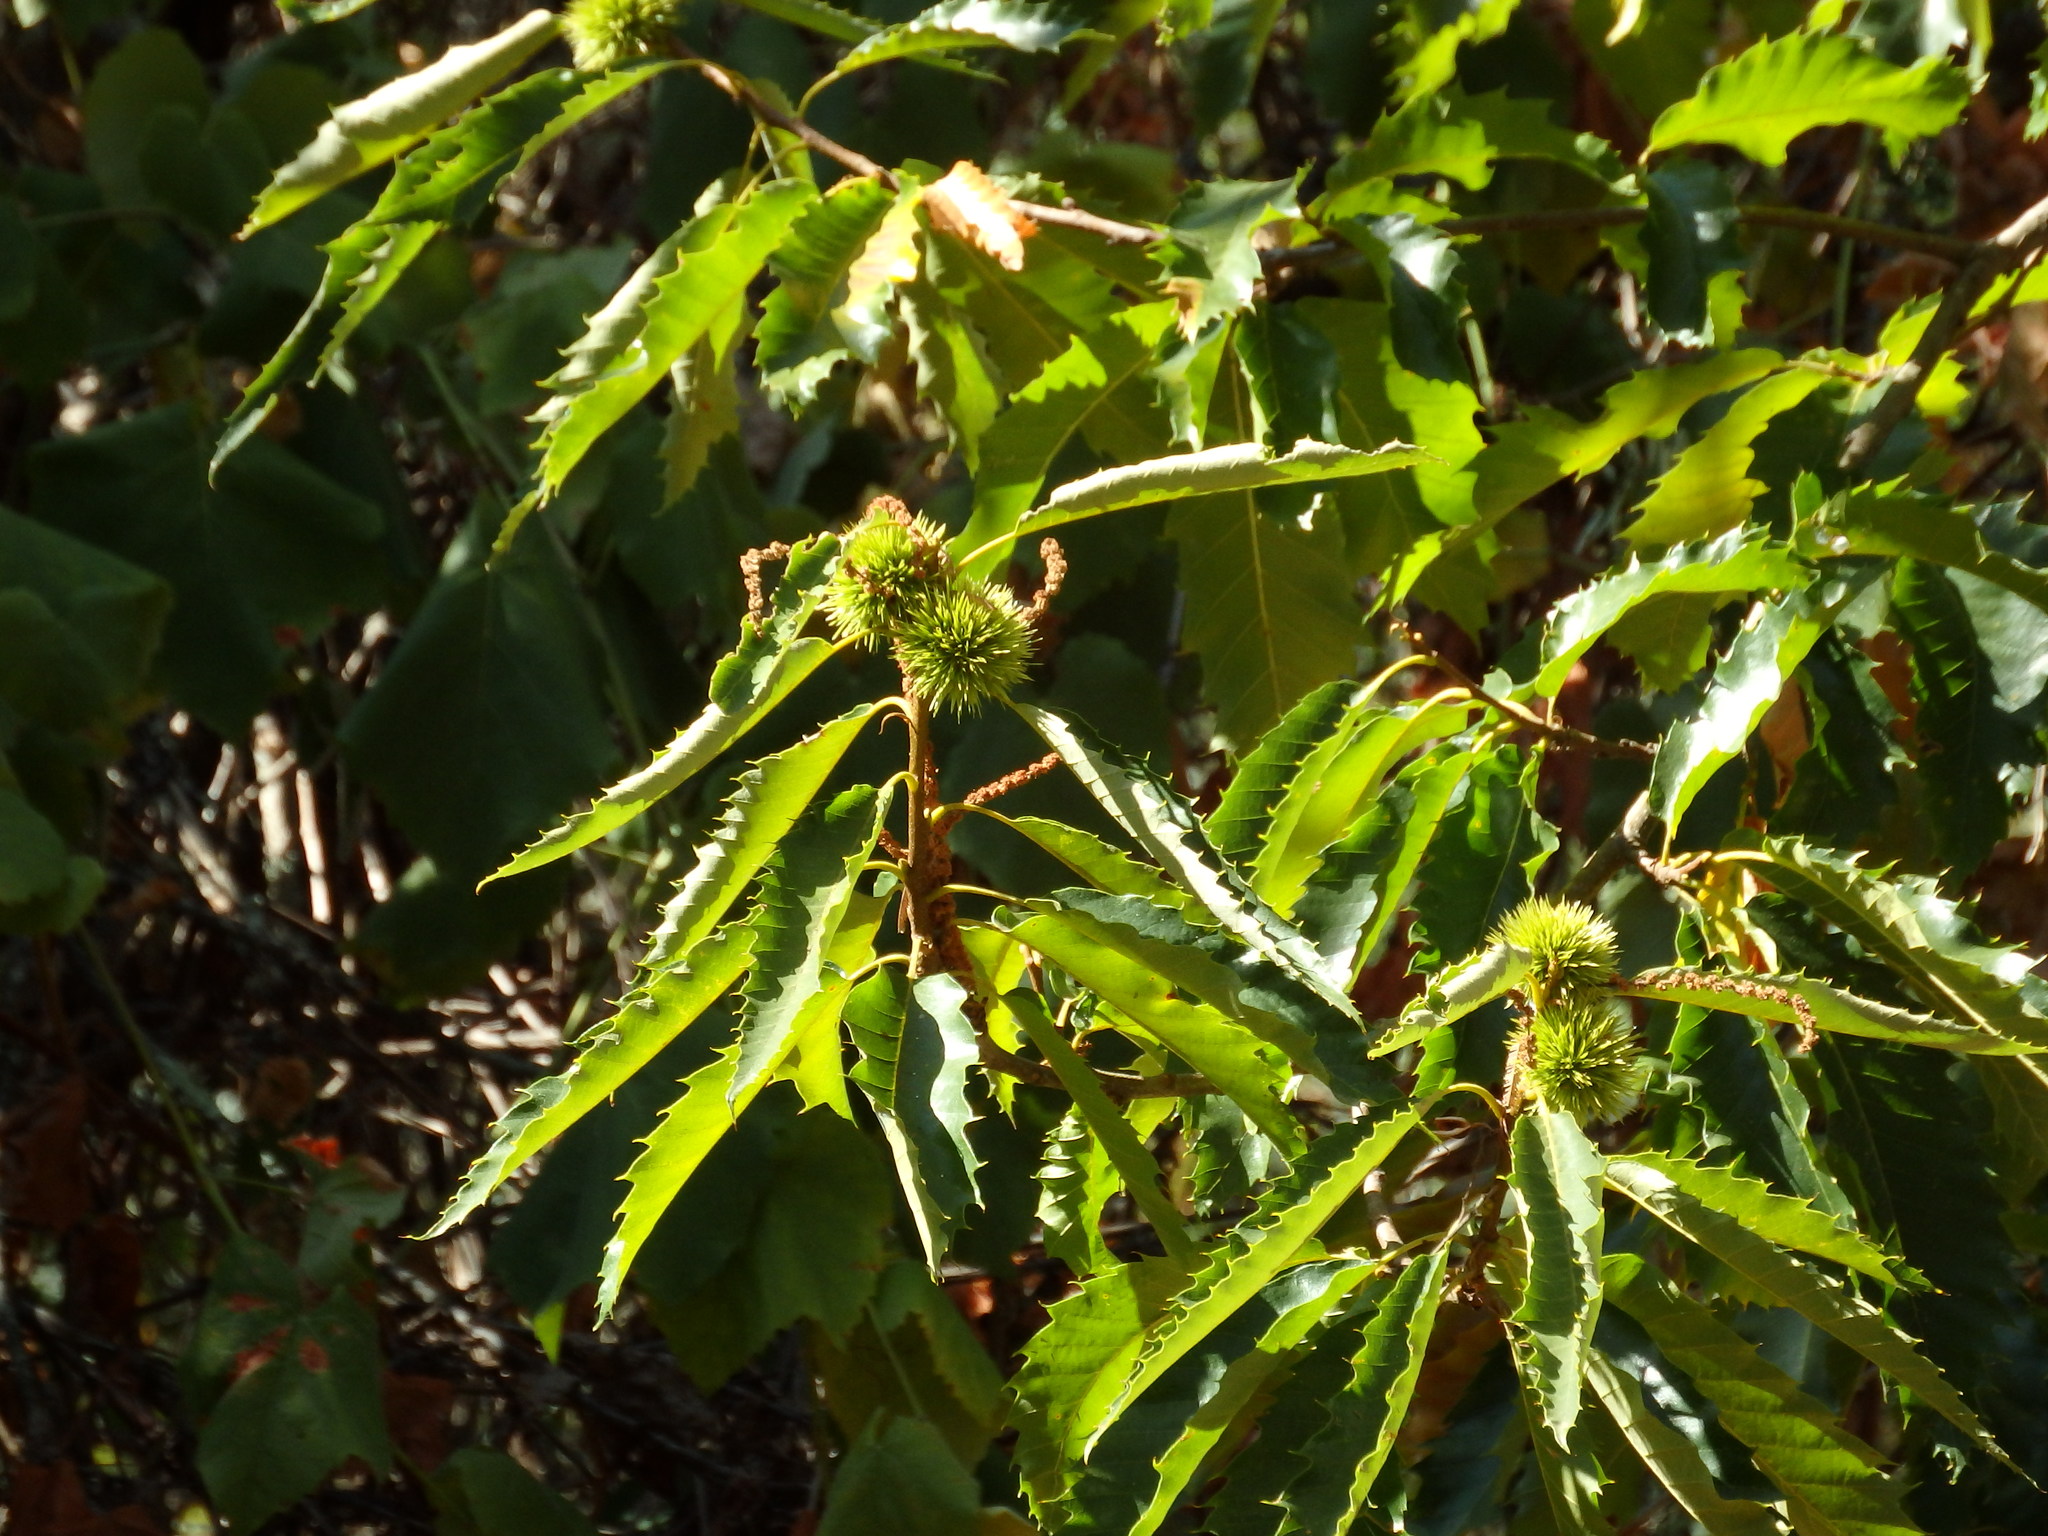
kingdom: Plantae
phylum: Tracheophyta
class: Magnoliopsida
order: Fagales
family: Fagaceae
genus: Castanea
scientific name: Castanea sativa
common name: Sweet chestnut
